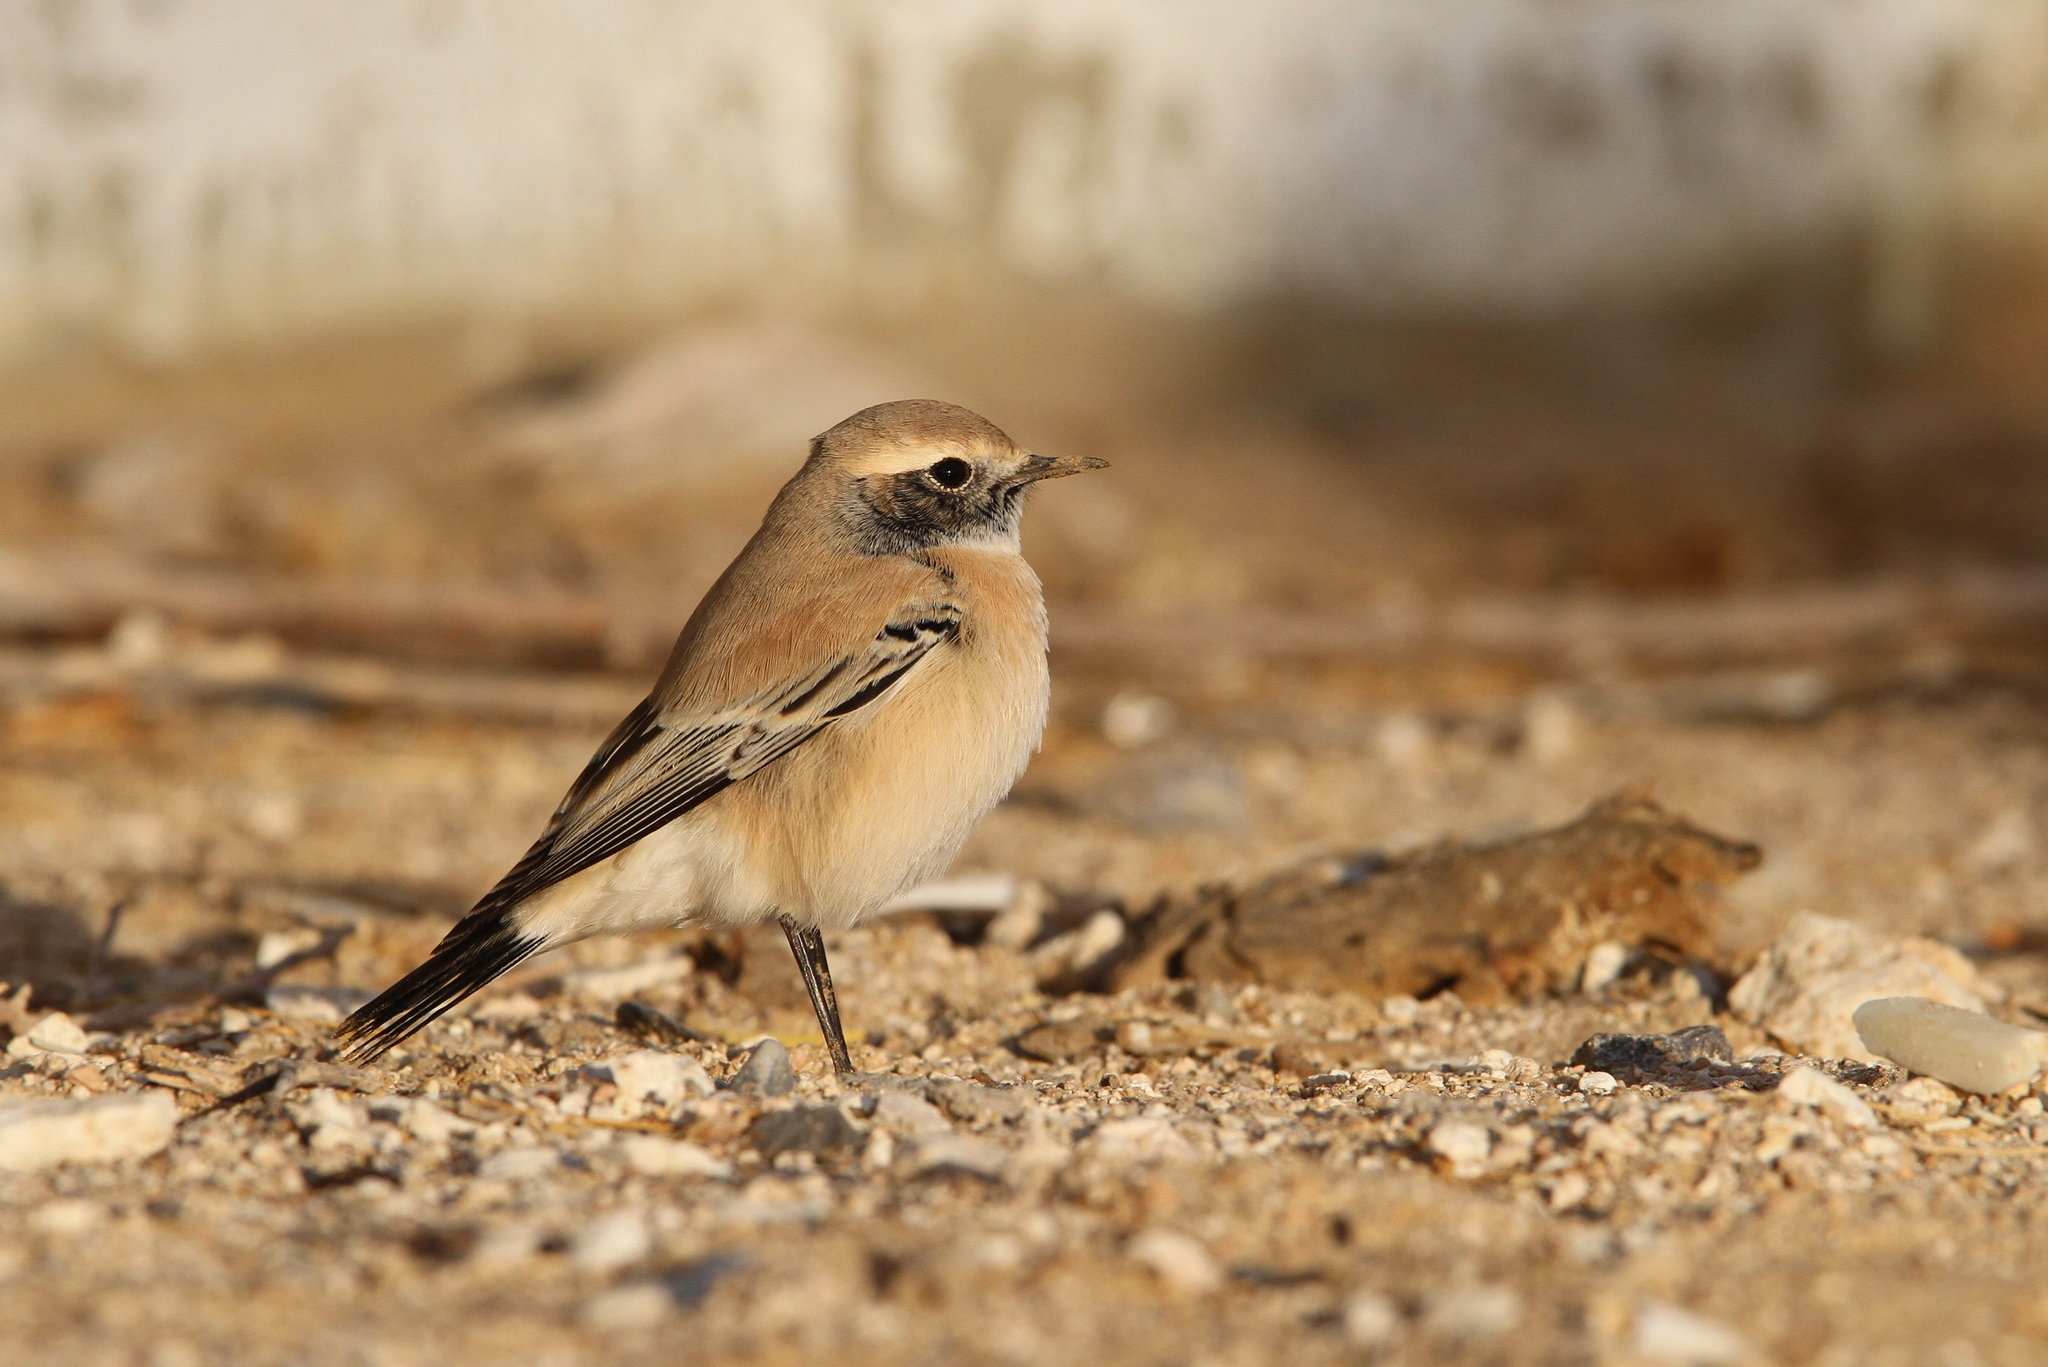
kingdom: Animalia
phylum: Chordata
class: Aves
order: Passeriformes
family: Muscicapidae
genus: Oenanthe
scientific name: Oenanthe deserti
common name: Desert wheatear
